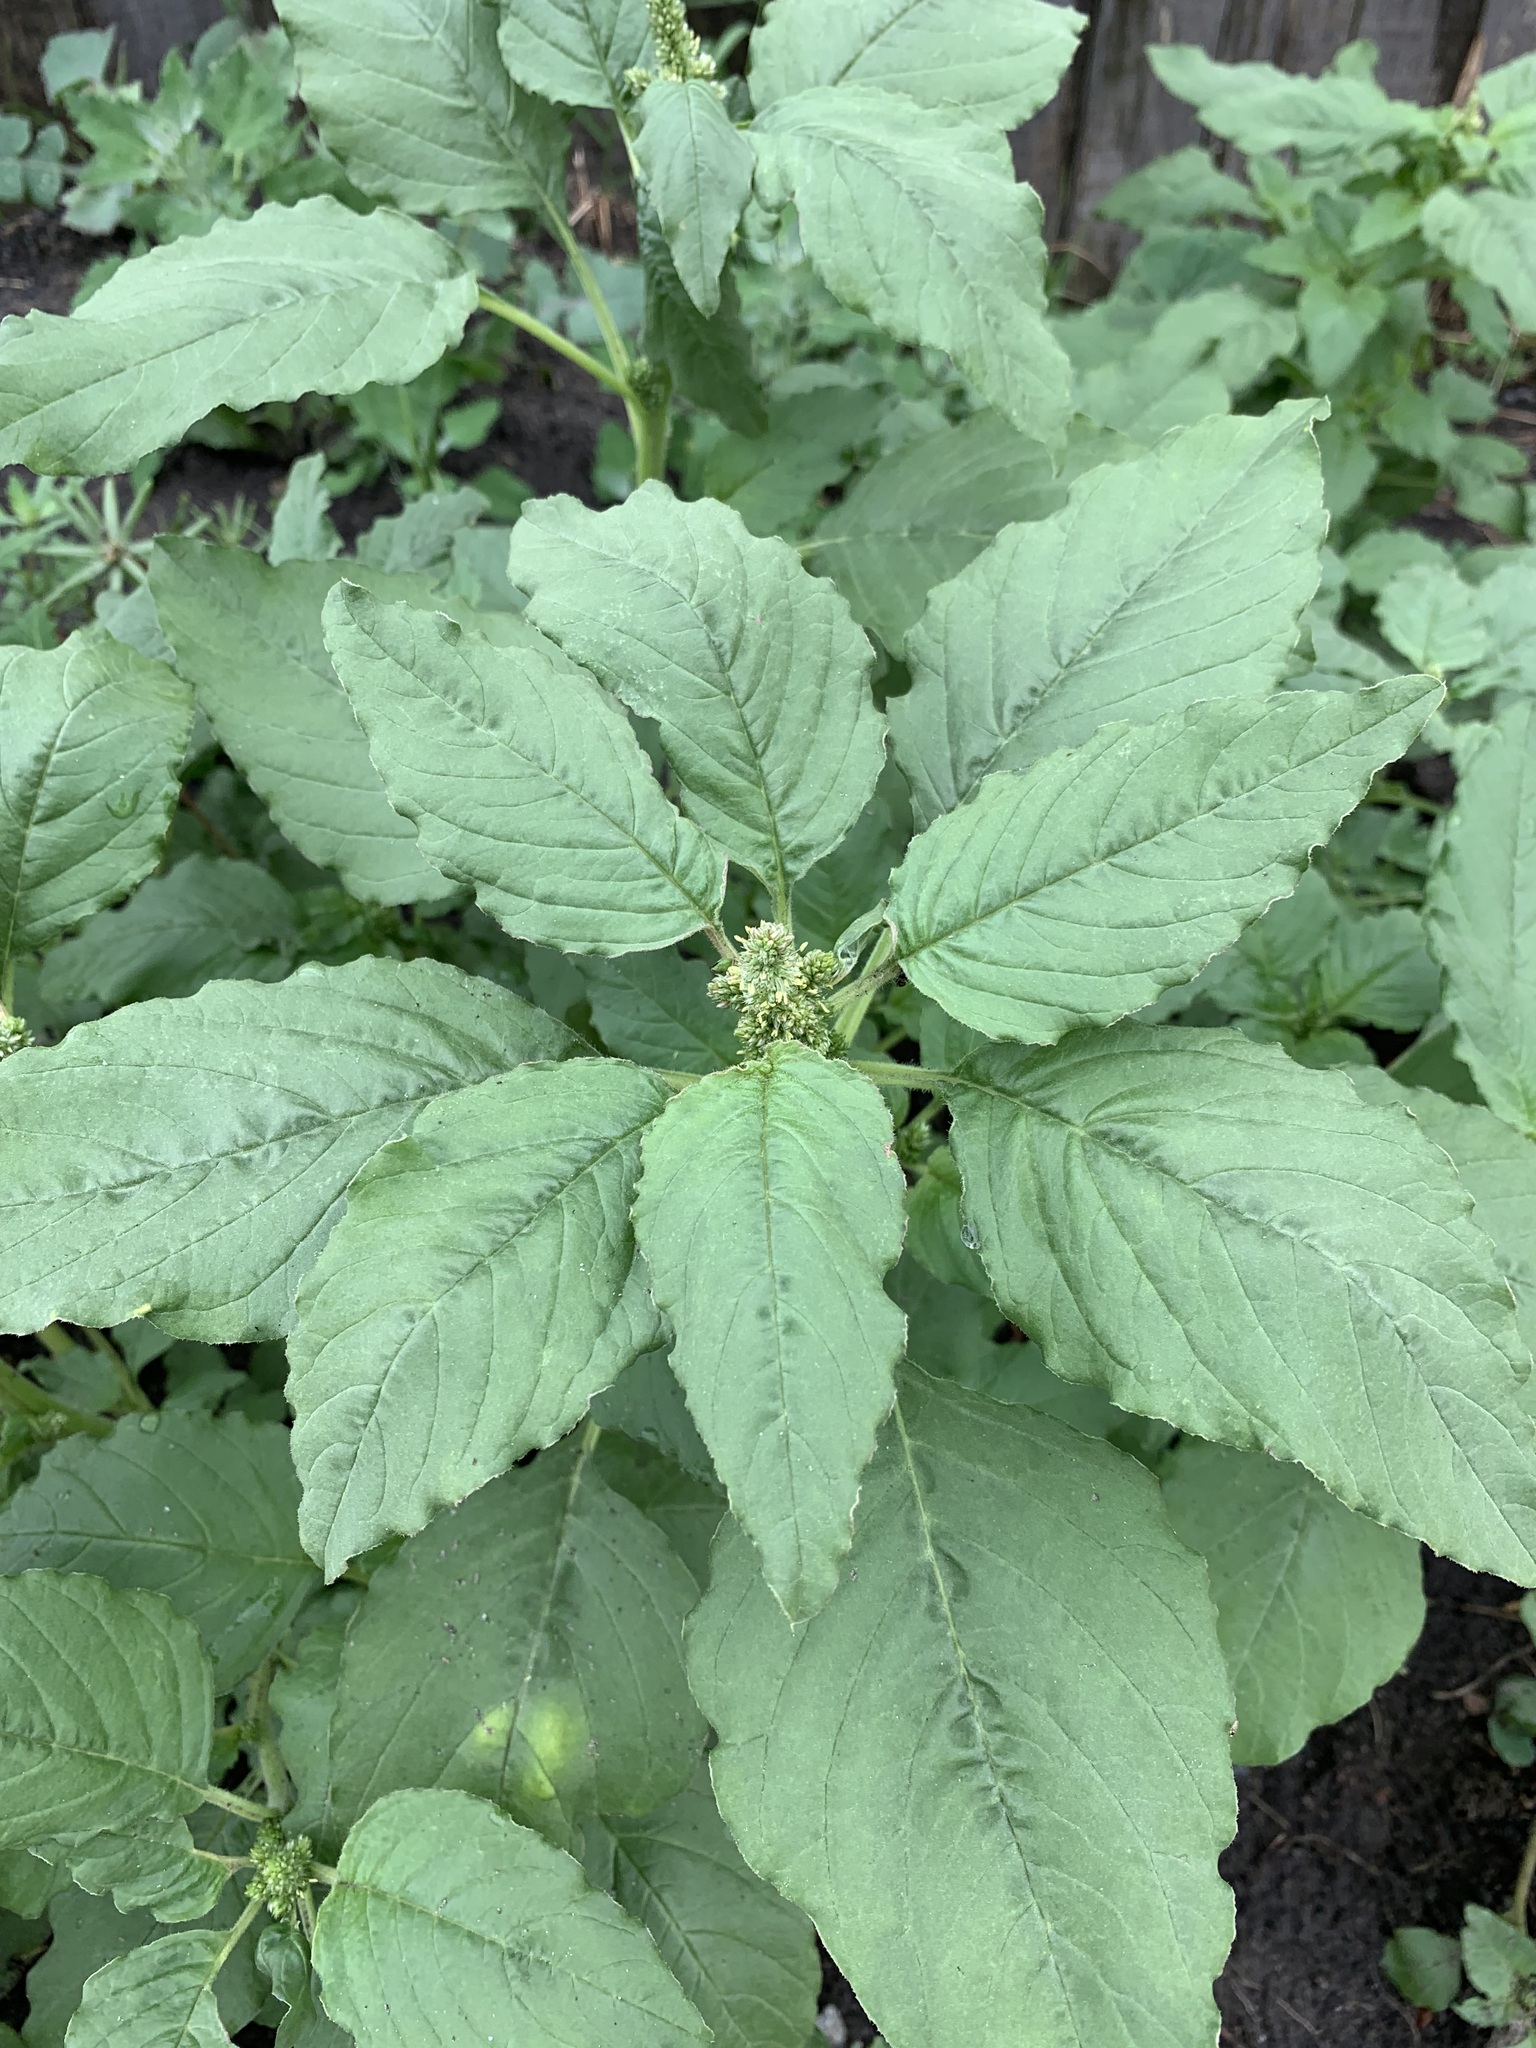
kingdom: Plantae
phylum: Tracheophyta
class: Magnoliopsida
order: Caryophyllales
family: Amaranthaceae
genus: Amaranthus
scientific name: Amaranthus retroflexus
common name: Redroot amaranth
